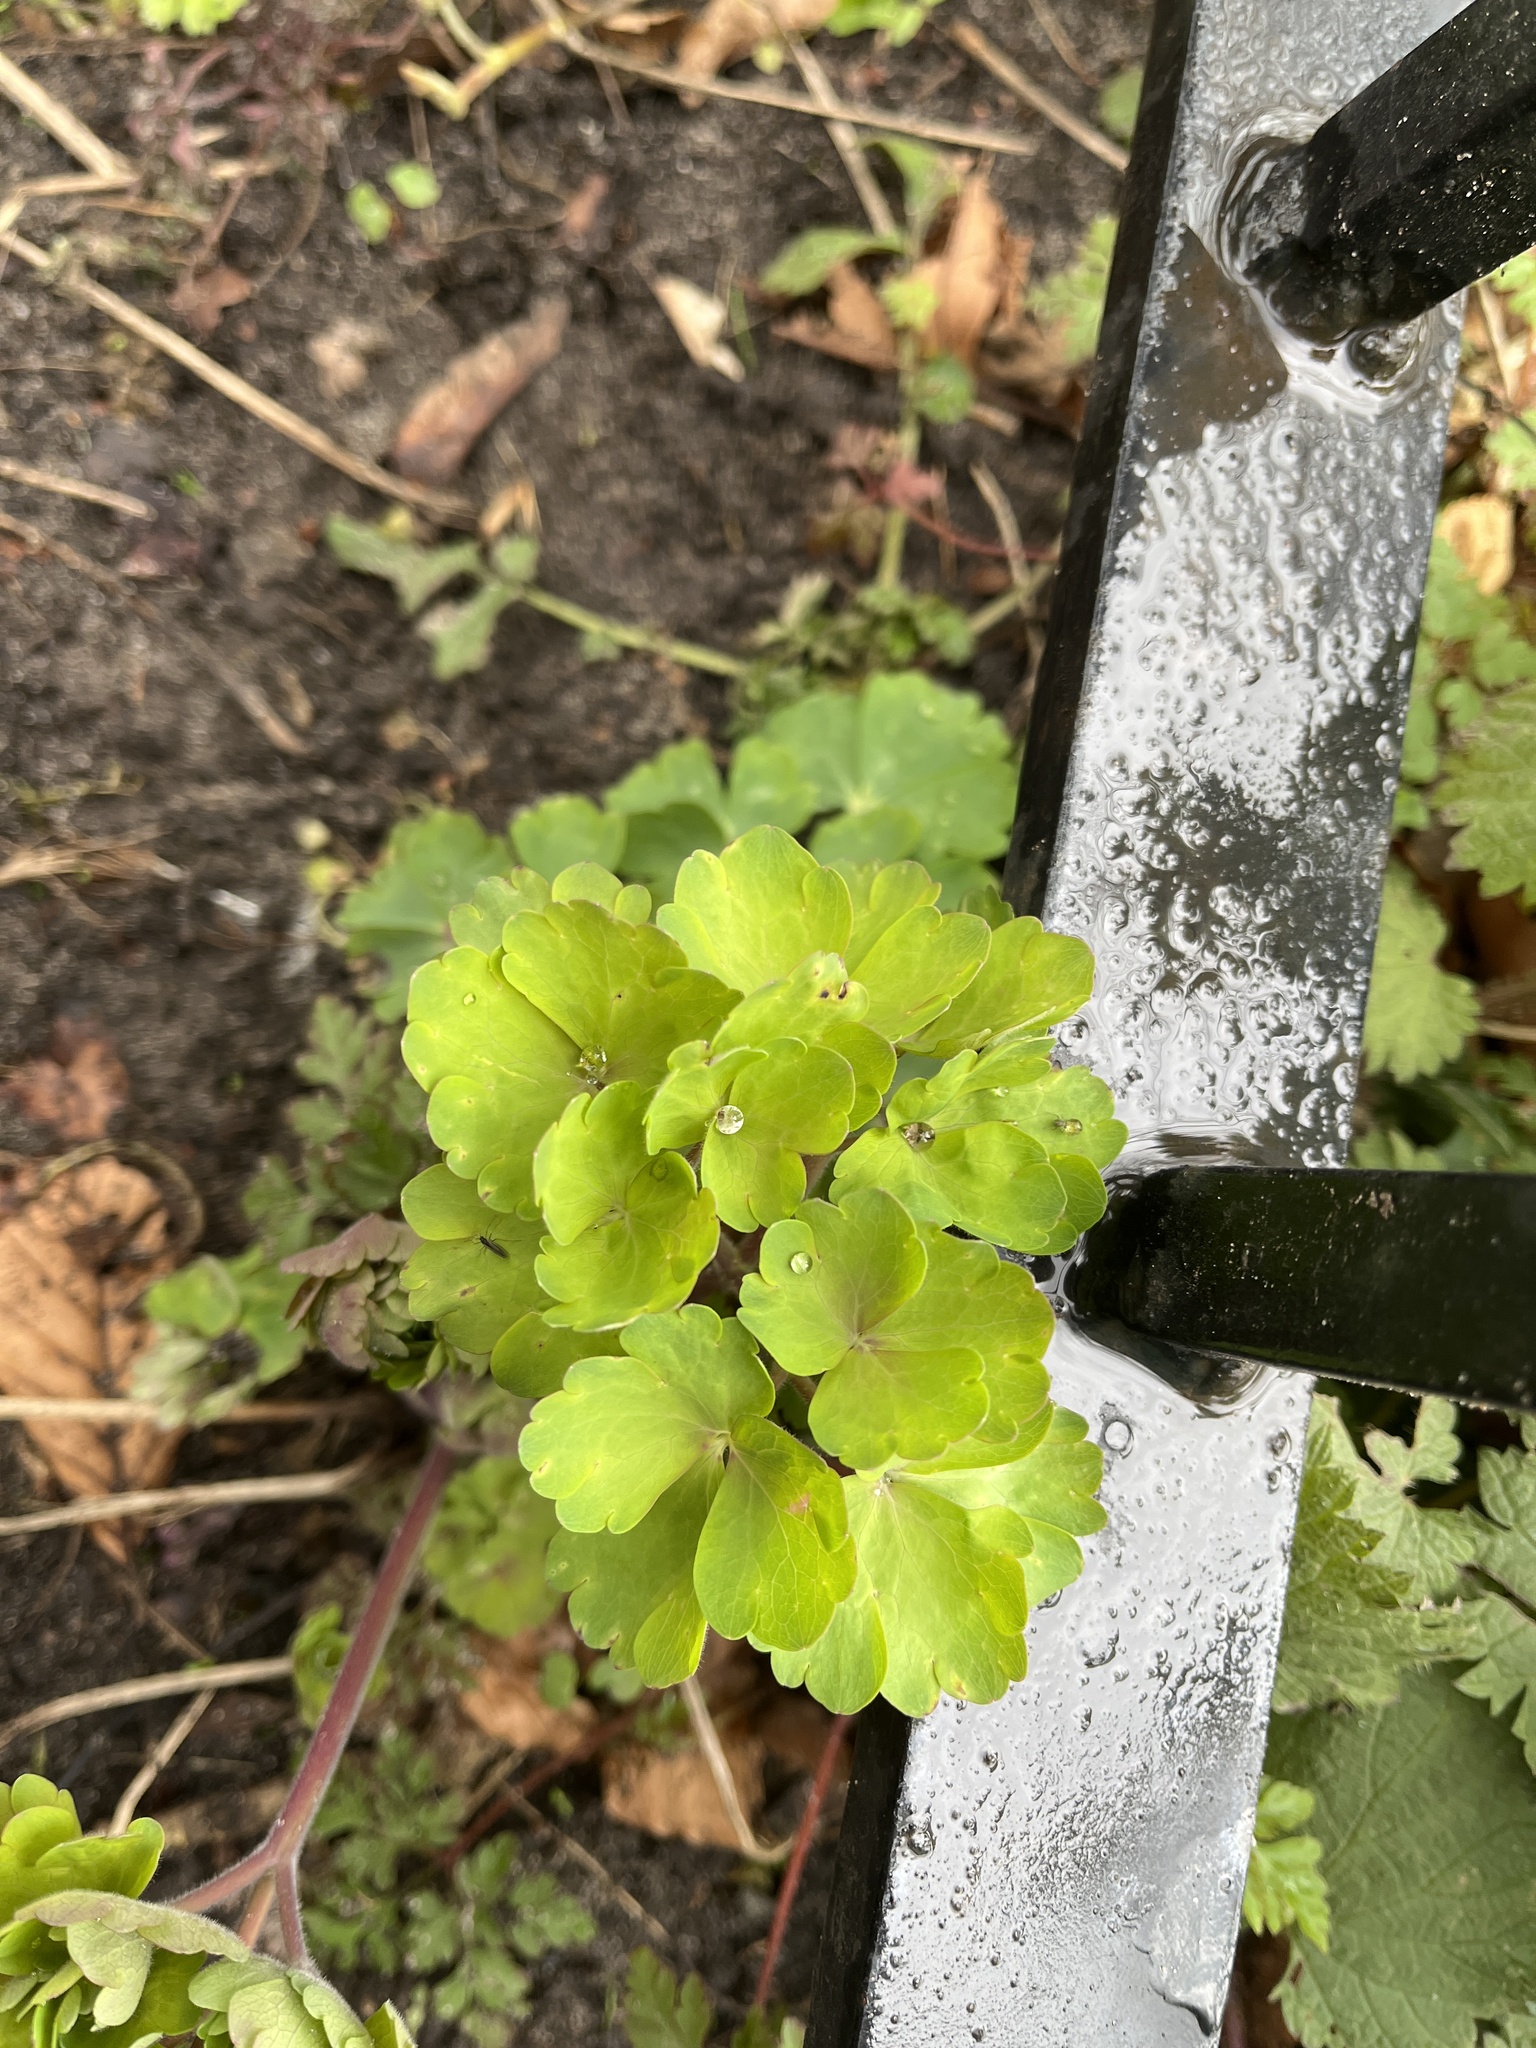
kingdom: Plantae
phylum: Tracheophyta
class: Magnoliopsida
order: Ranunculales
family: Ranunculaceae
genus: Aquilegia
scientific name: Aquilegia vulgaris
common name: Columbine
